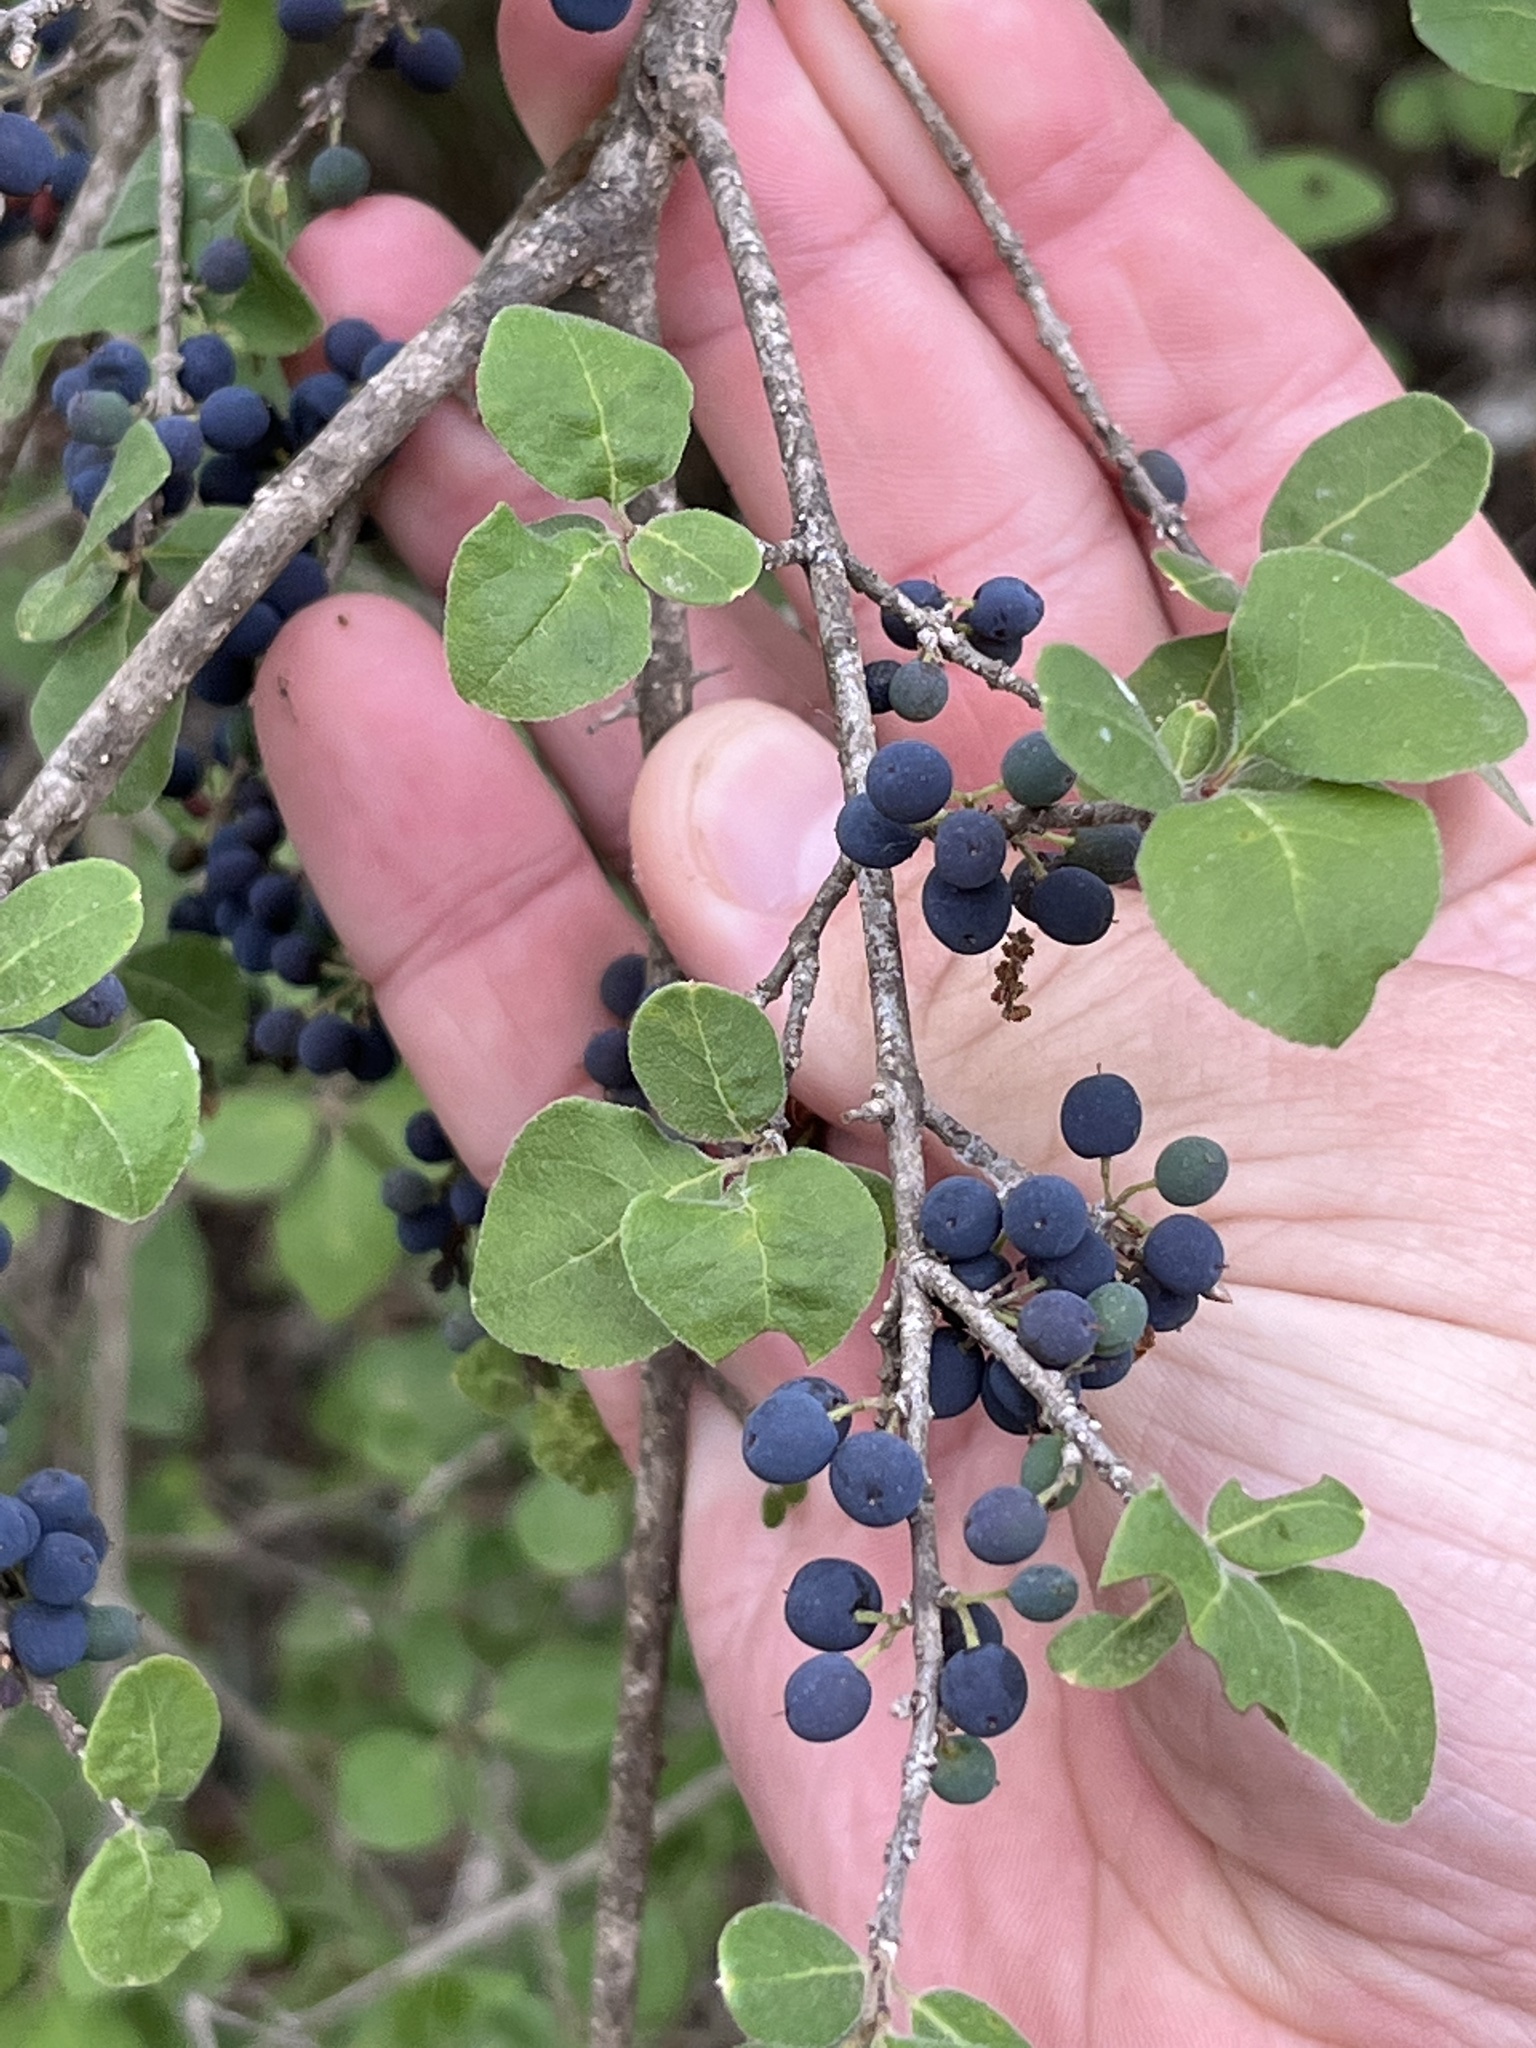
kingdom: Plantae
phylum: Tracheophyta
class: Magnoliopsida
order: Lamiales
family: Oleaceae
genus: Forestiera
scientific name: Forestiera pubescens
